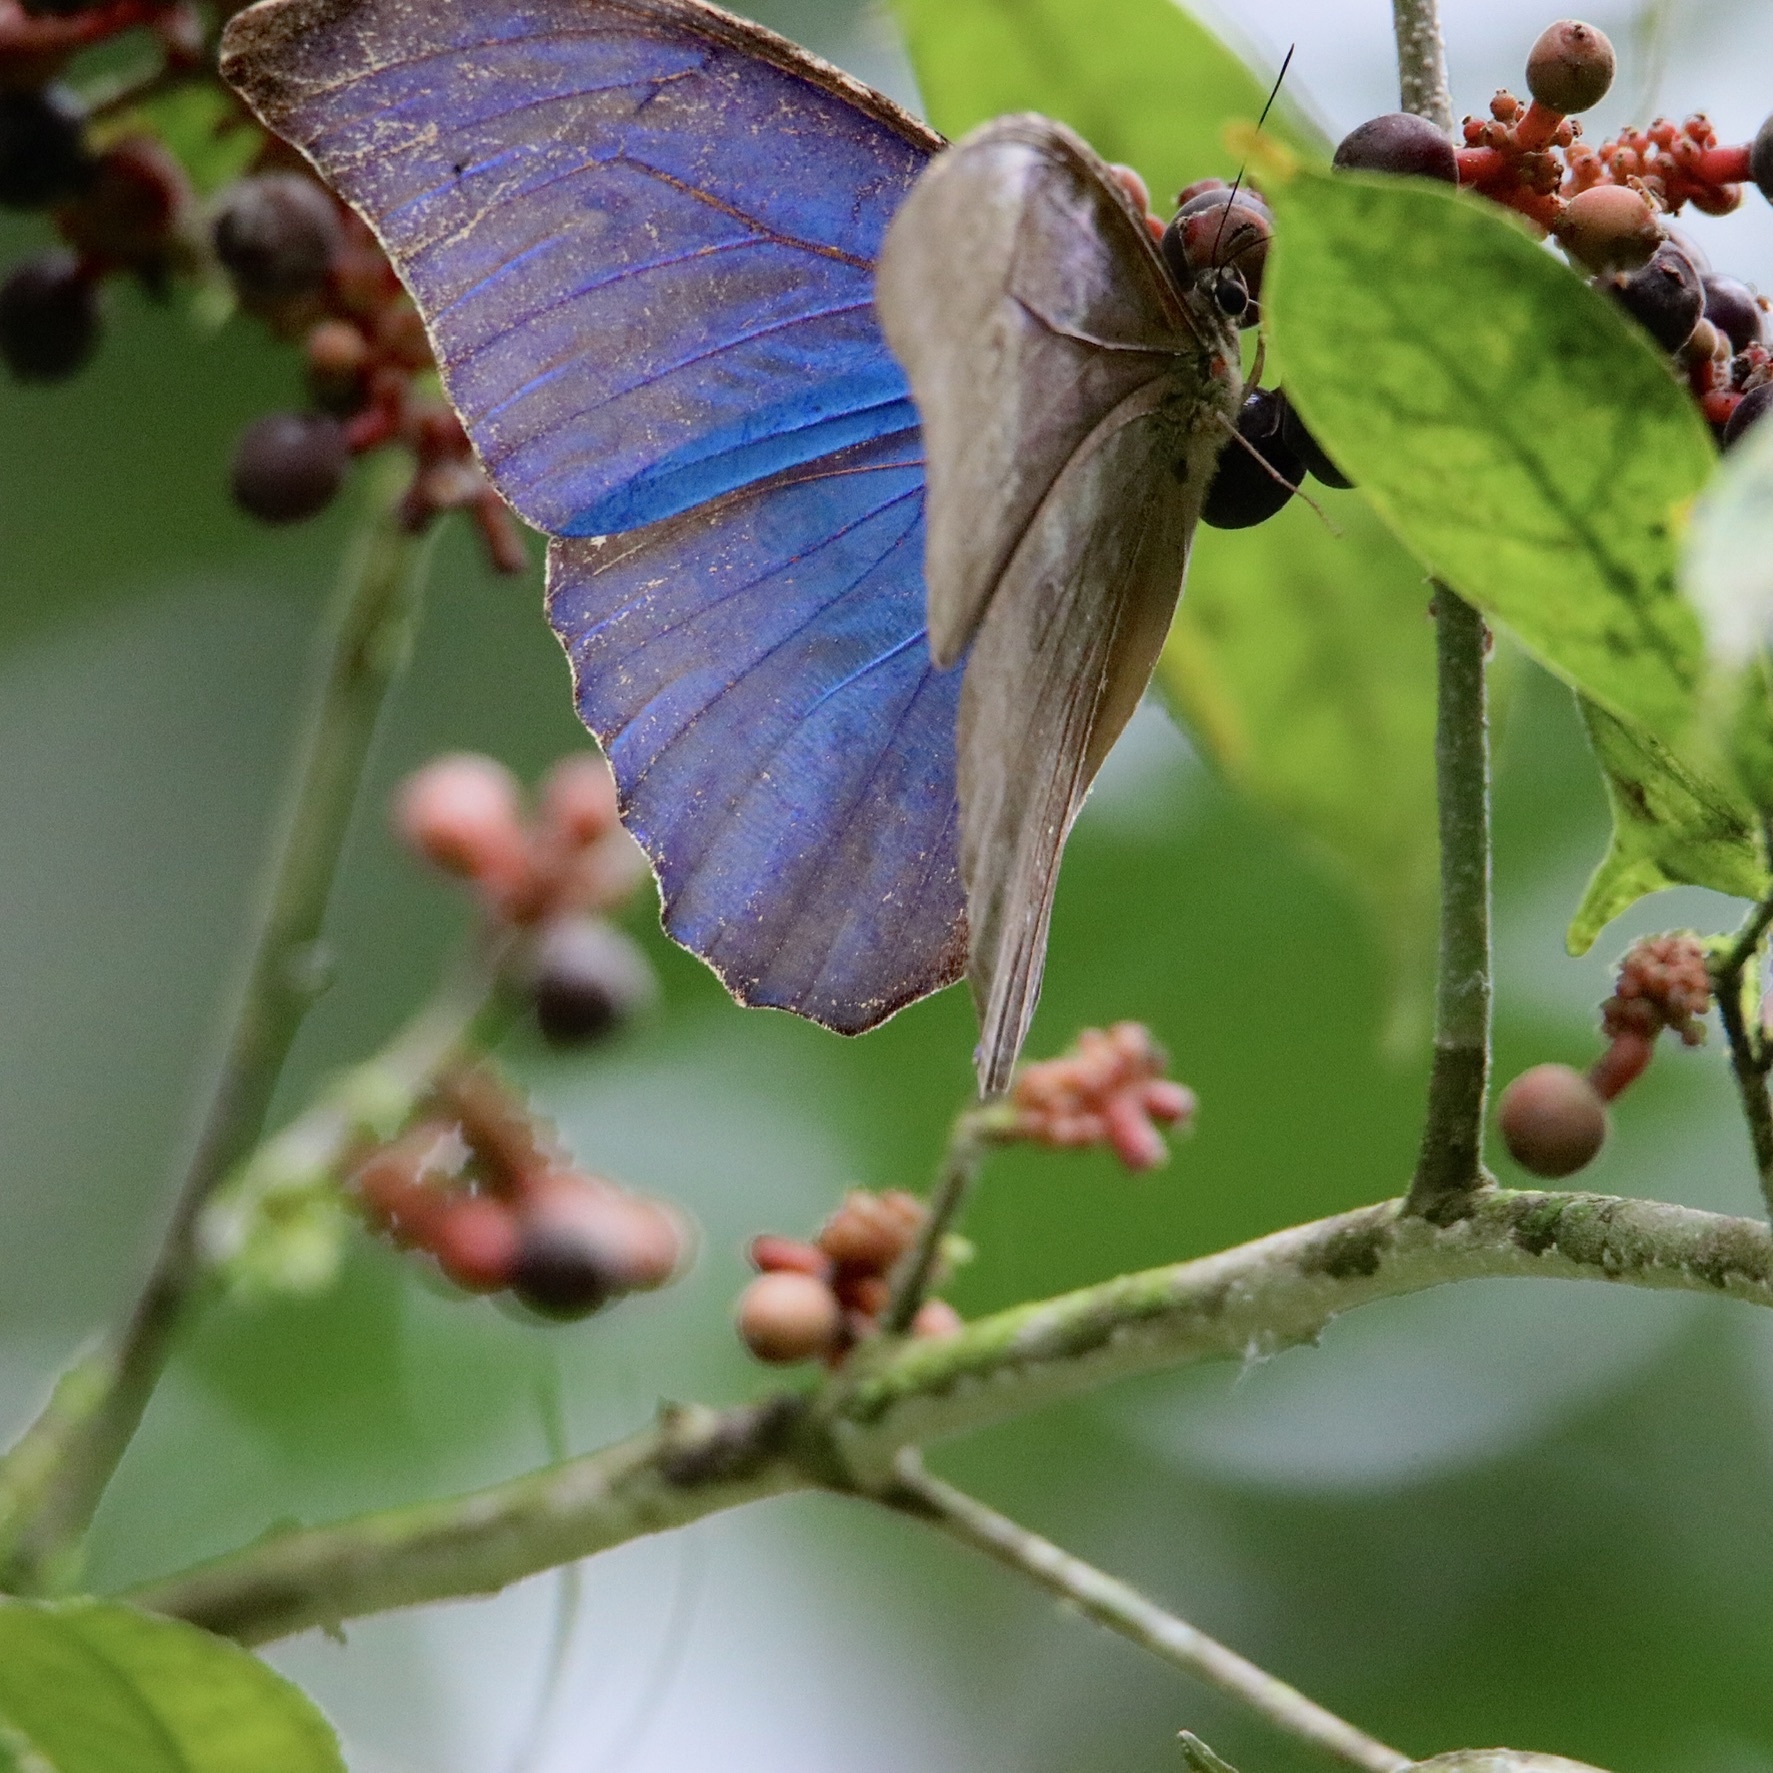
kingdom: Animalia
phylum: Arthropoda
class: Insecta
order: Lepidoptera
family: Nymphalidae
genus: Morpho
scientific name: Morpho amathonte
